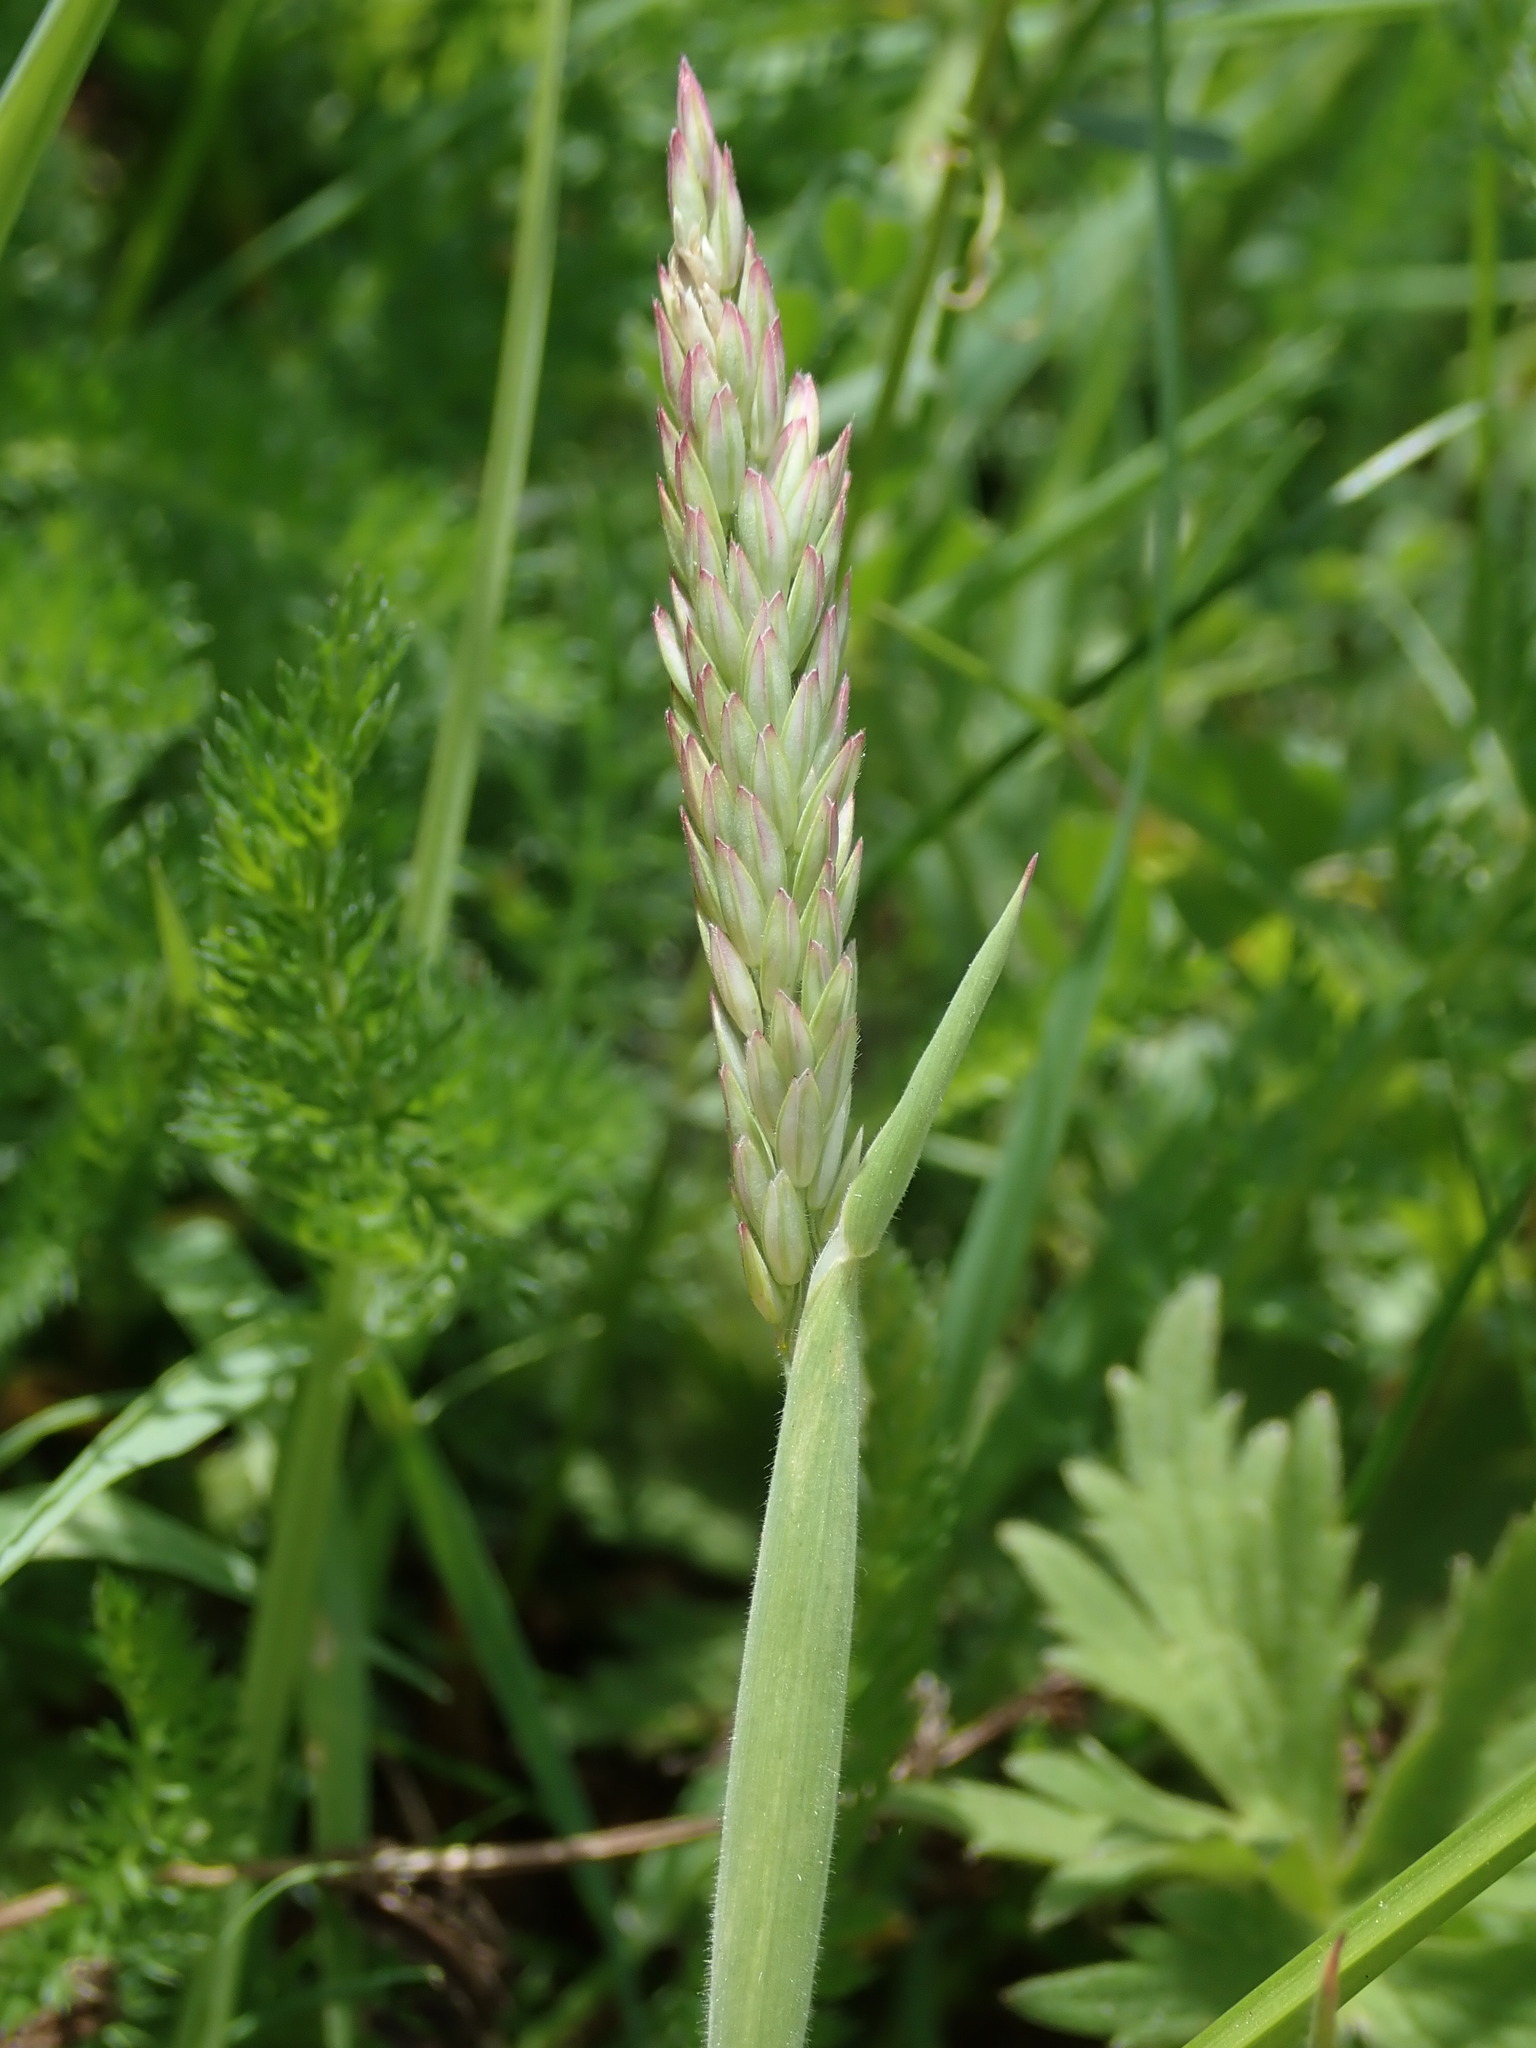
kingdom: Plantae
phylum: Tracheophyta
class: Liliopsida
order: Poales
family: Poaceae
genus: Holcus
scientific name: Holcus lanatus
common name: Yorkshire-fog
